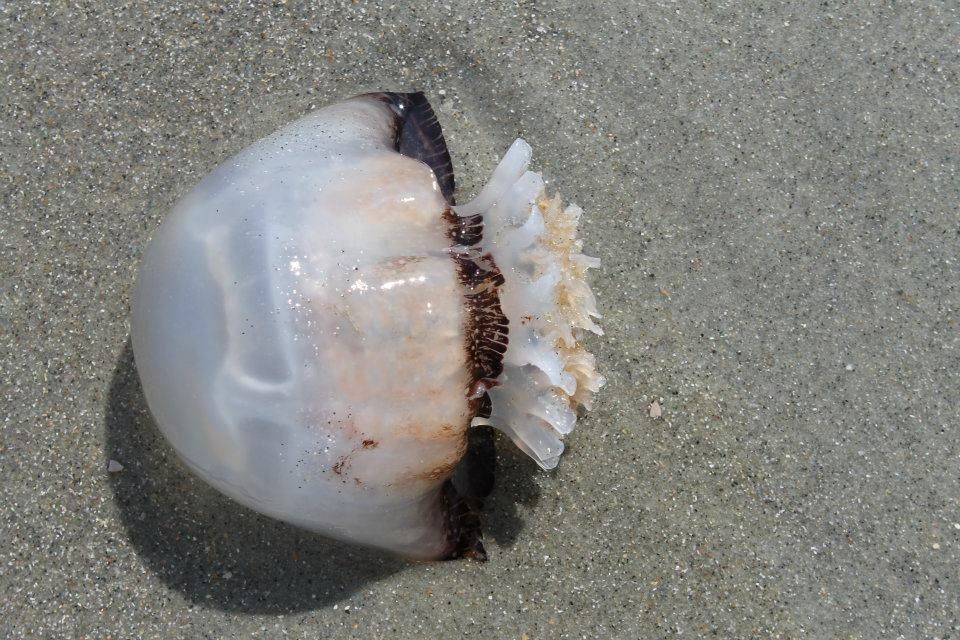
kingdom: Animalia
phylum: Cnidaria
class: Scyphozoa
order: Rhizostomeae
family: Stomolophidae
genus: Stomolophus
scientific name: Stomolophus meleagris
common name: Cabbagehead
